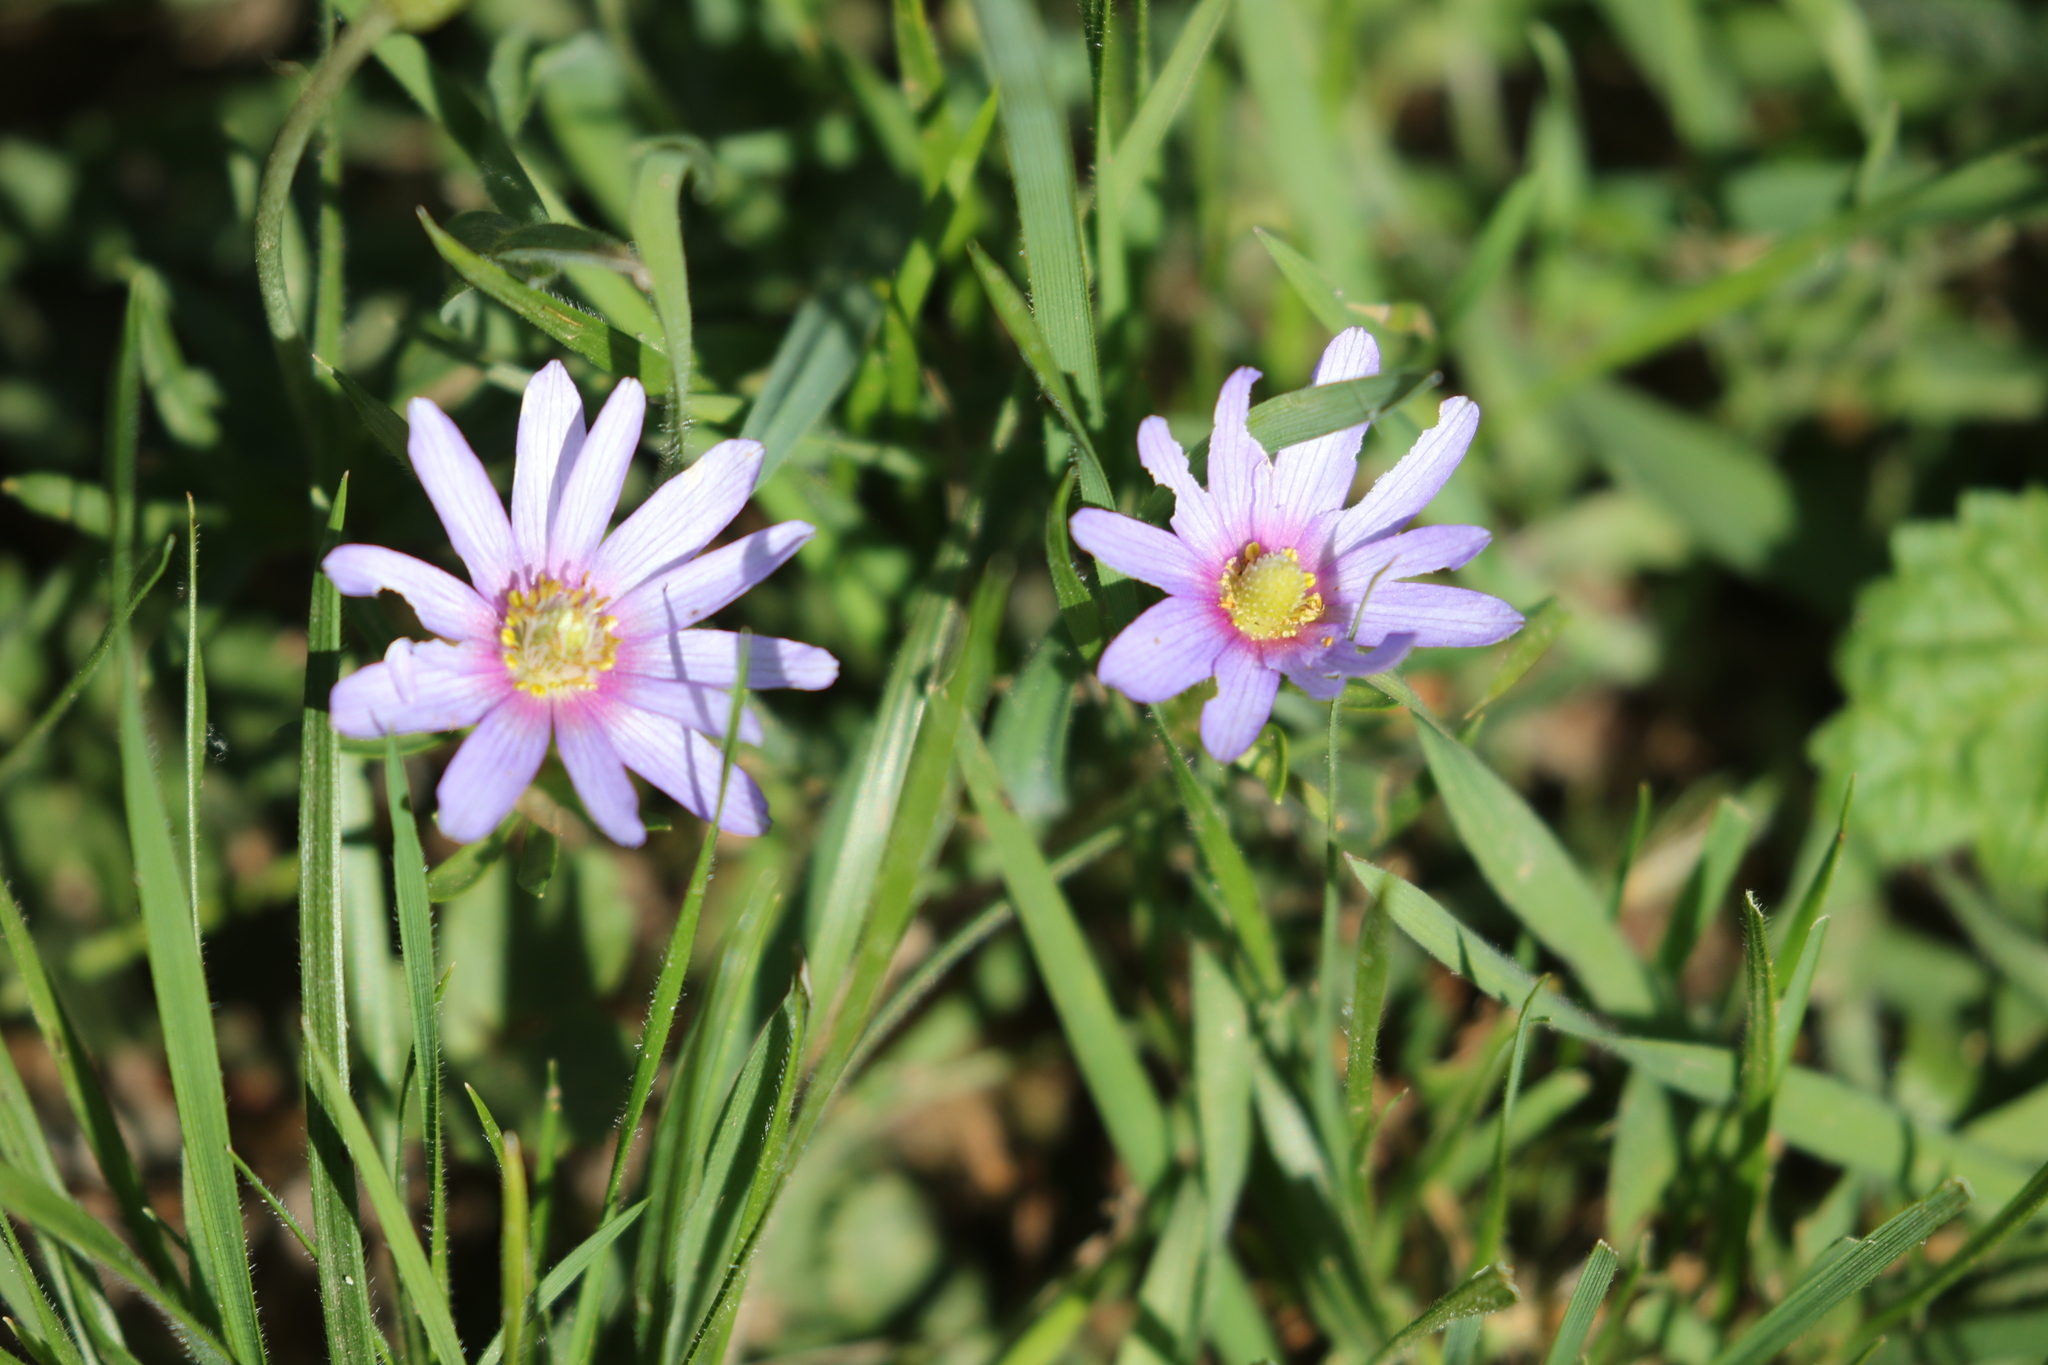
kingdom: Plantae
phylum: Tracheophyta
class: Magnoliopsida
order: Ranunculales
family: Ranunculaceae
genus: Anemone
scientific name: Anemone berlandieri
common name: Ten-petal anemone
